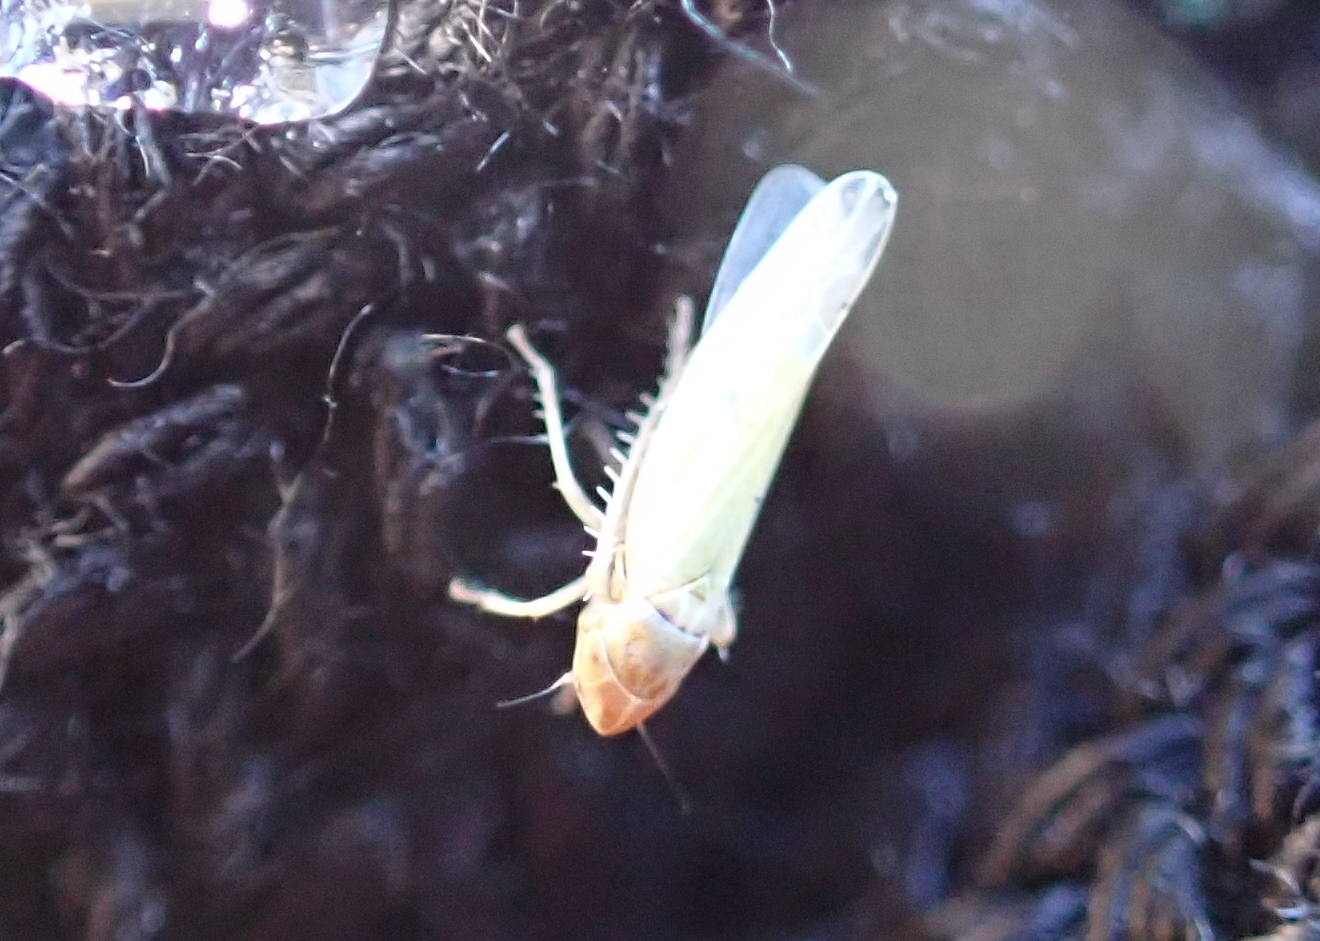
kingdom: Animalia
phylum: Arthropoda
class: Insecta
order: Hemiptera
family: Cicadellidae
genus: Dikraneura
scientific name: Dikraneura arizona
